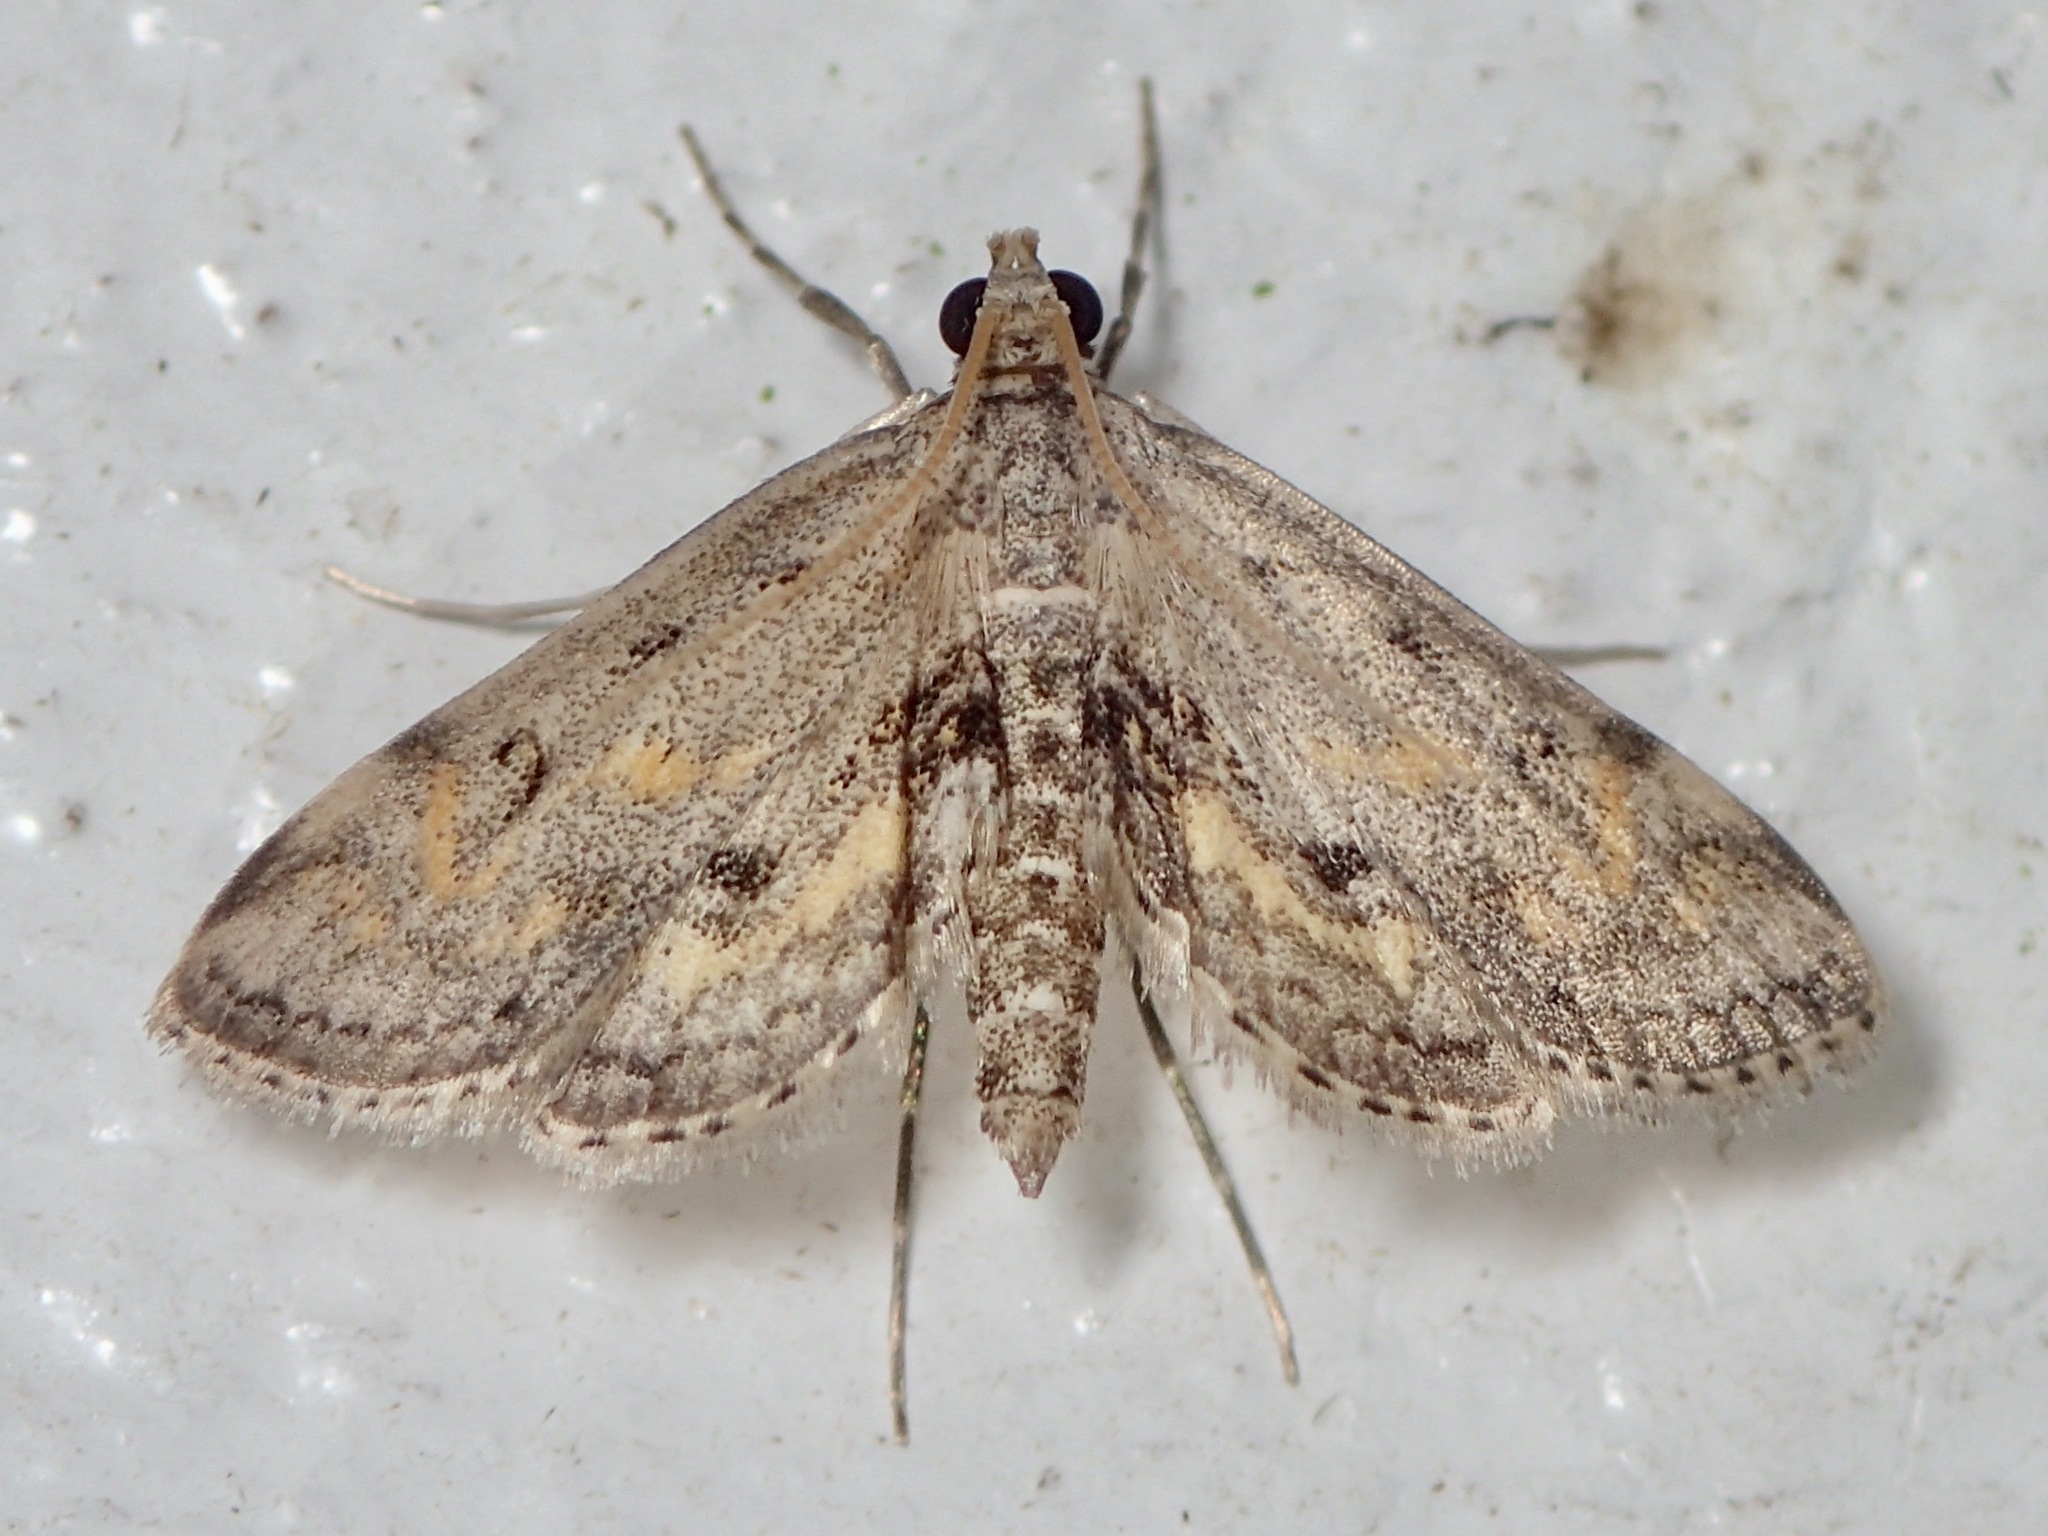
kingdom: Animalia
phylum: Arthropoda
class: Insecta
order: Lepidoptera
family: Crambidae
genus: Parapoynx
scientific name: Parapoynx crisonalis
